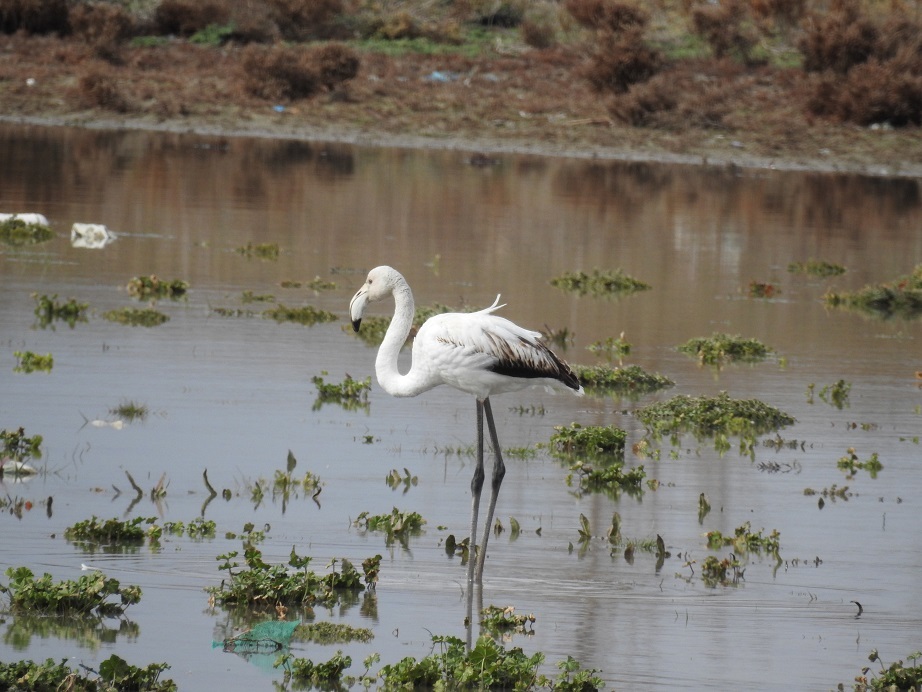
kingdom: Animalia
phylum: Chordata
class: Aves
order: Phoenicopteriformes
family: Phoenicopteridae
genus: Phoenicopterus
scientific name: Phoenicopterus roseus
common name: Greater flamingo
